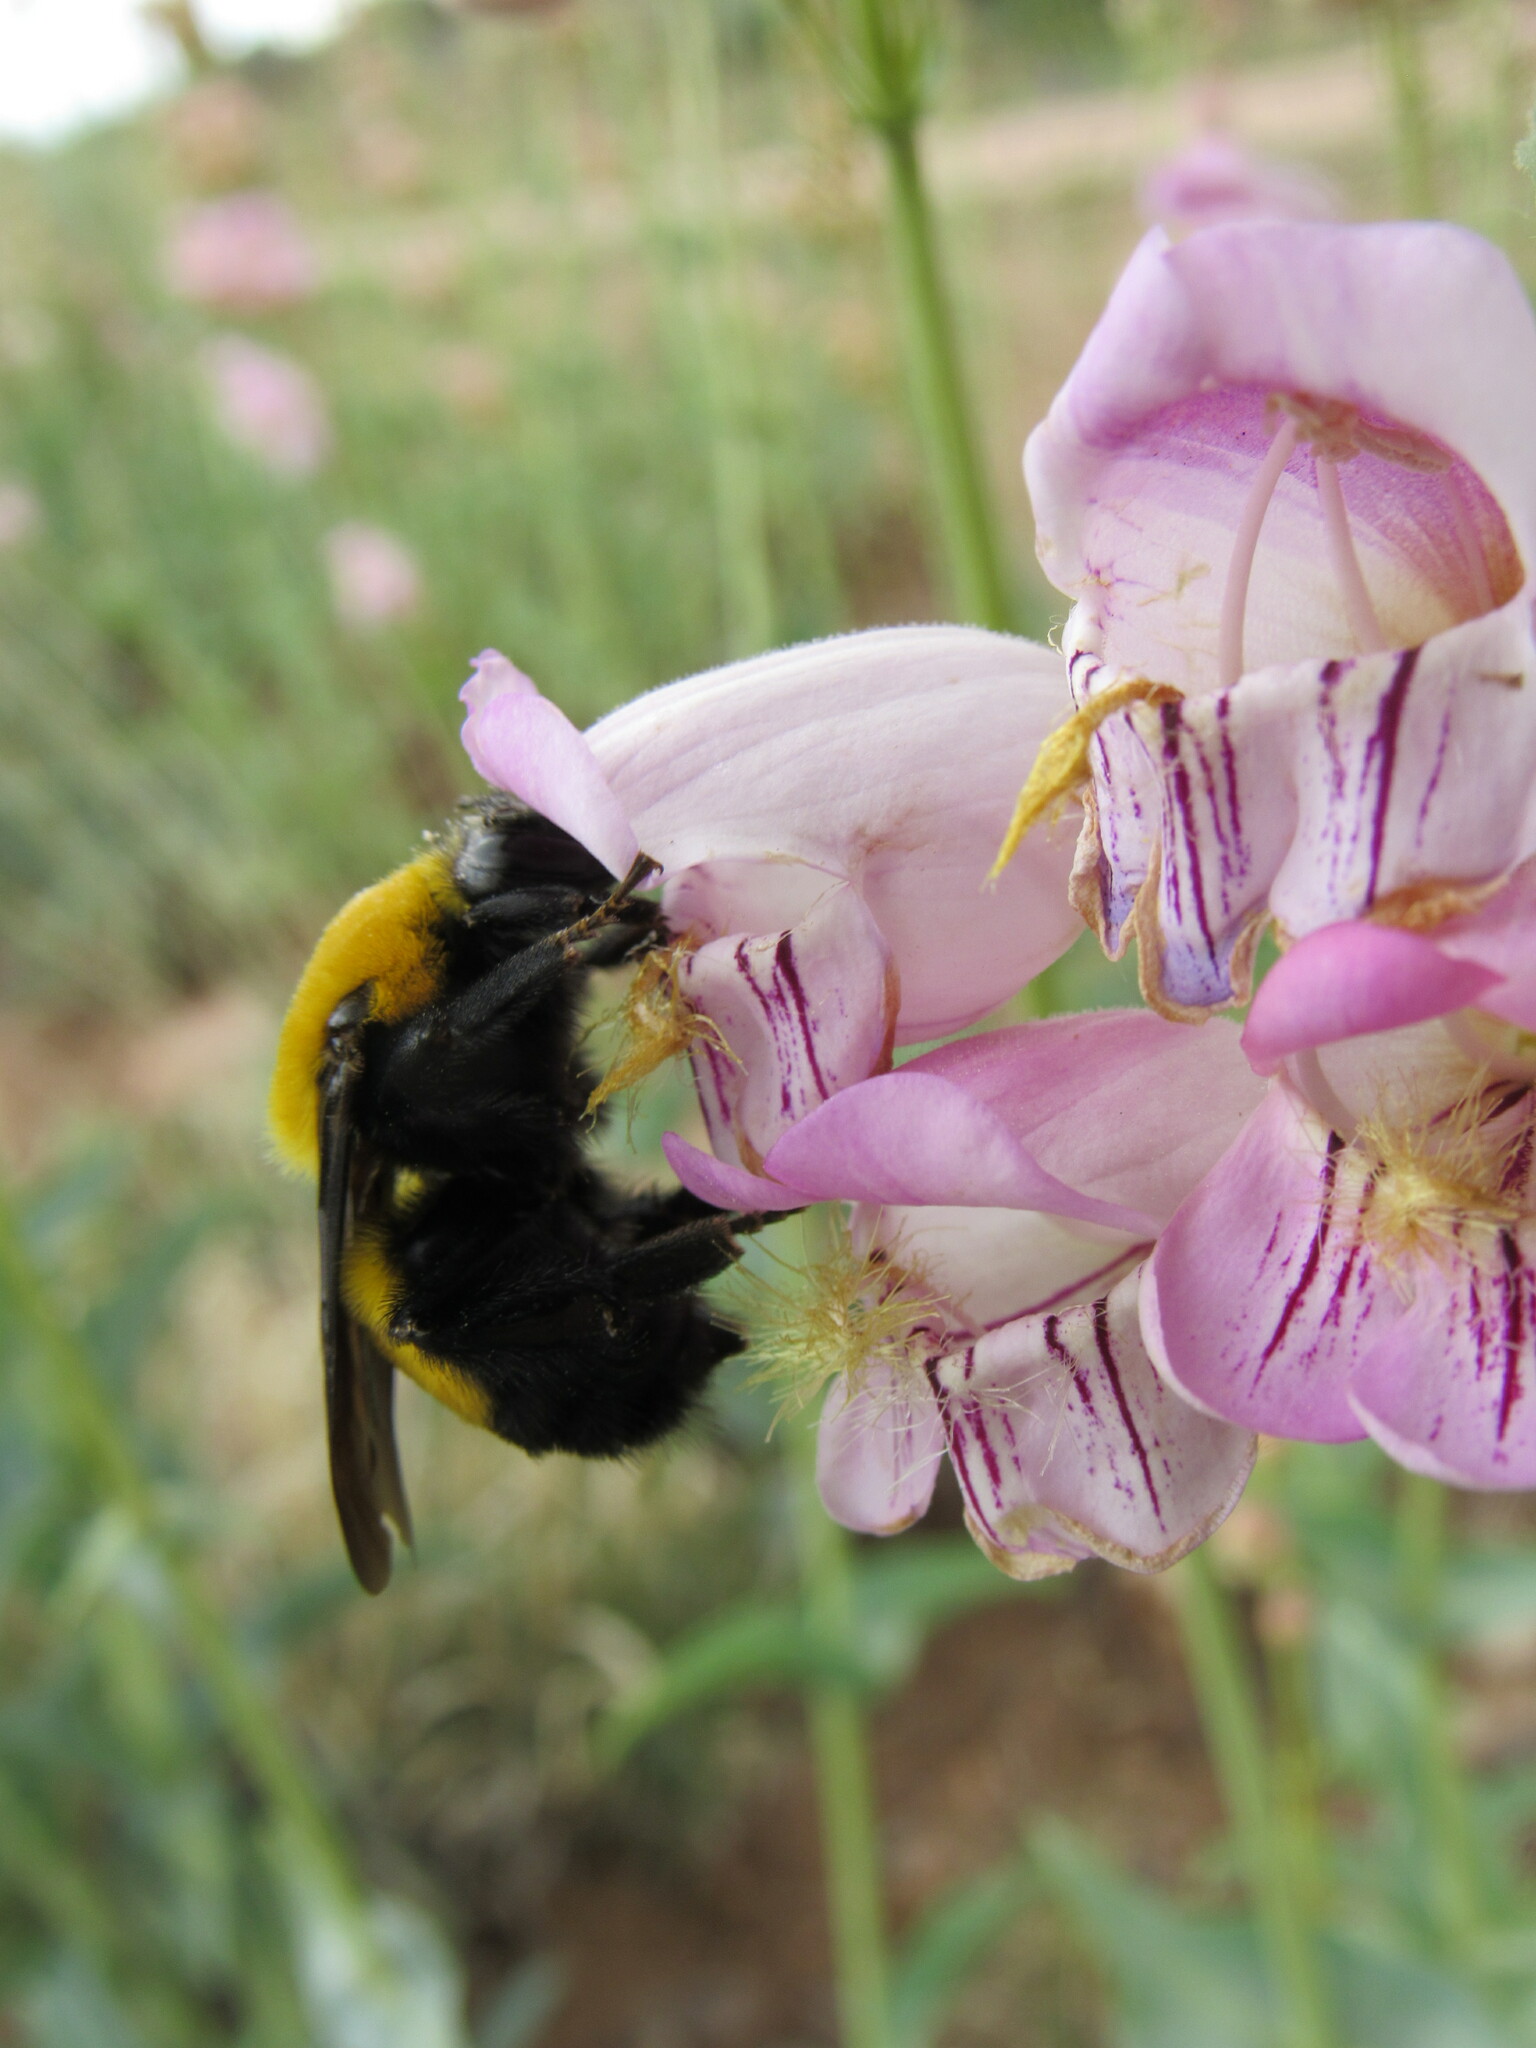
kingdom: Animalia
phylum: Arthropoda
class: Insecta
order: Hymenoptera
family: Apidae
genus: Bombus
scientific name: Bombus morrisoni
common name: Morrison bumble bee
